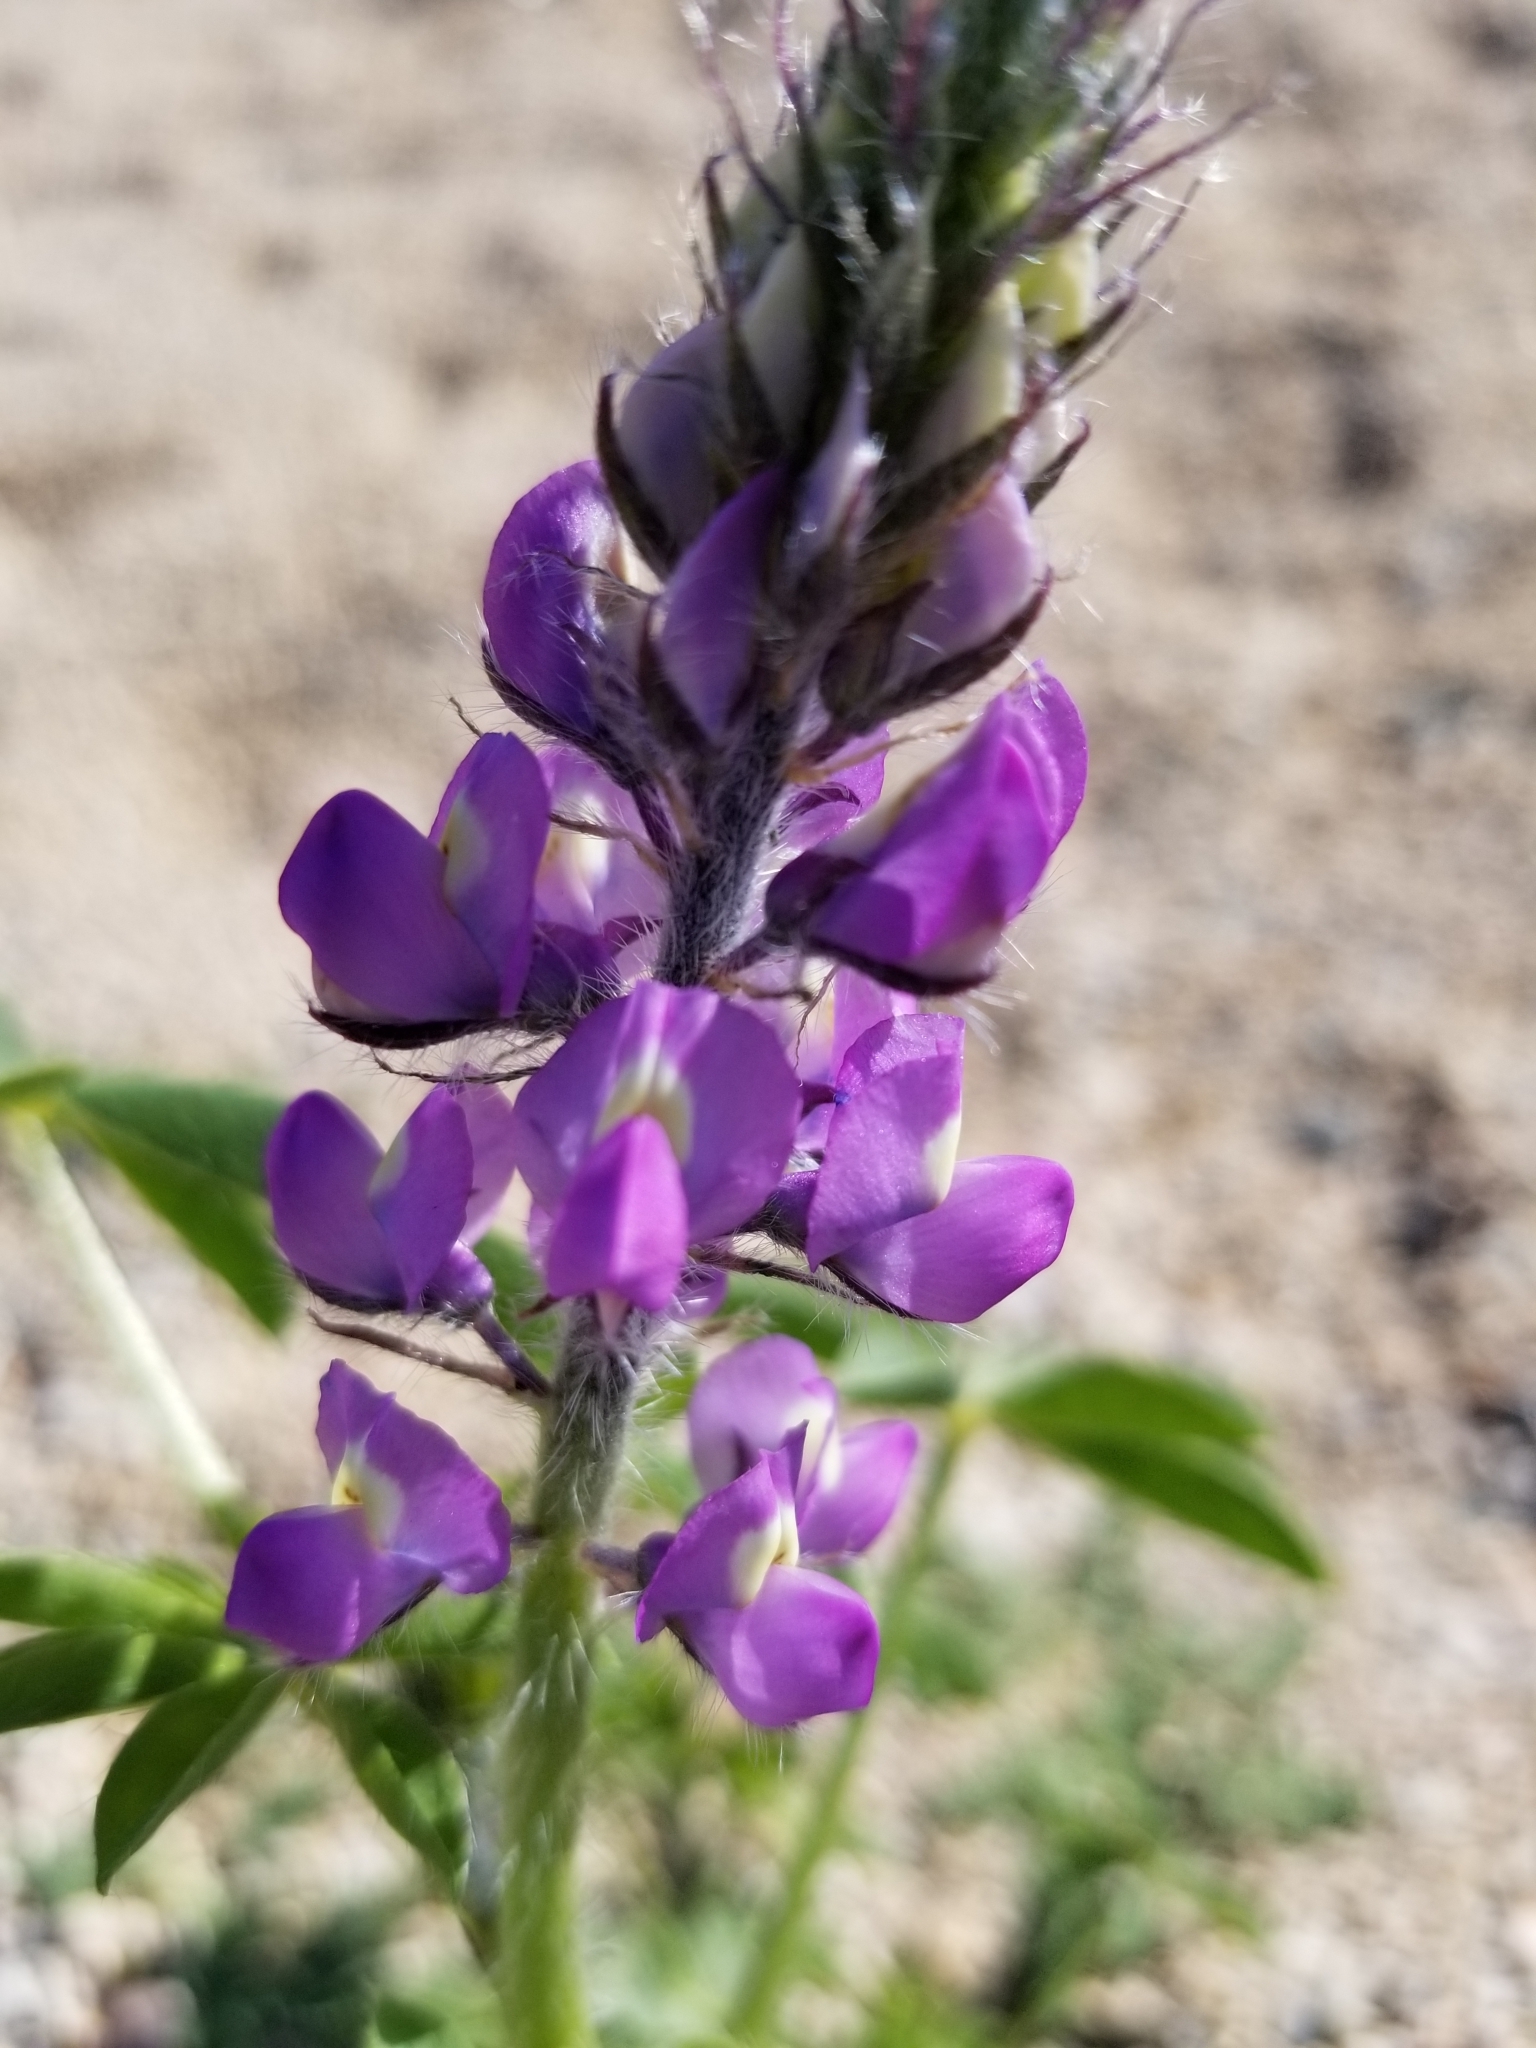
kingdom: Plantae
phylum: Tracheophyta
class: Magnoliopsida
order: Fabales
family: Fabaceae
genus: Lupinus
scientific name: Lupinus arizonicus
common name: Arizona lupine
